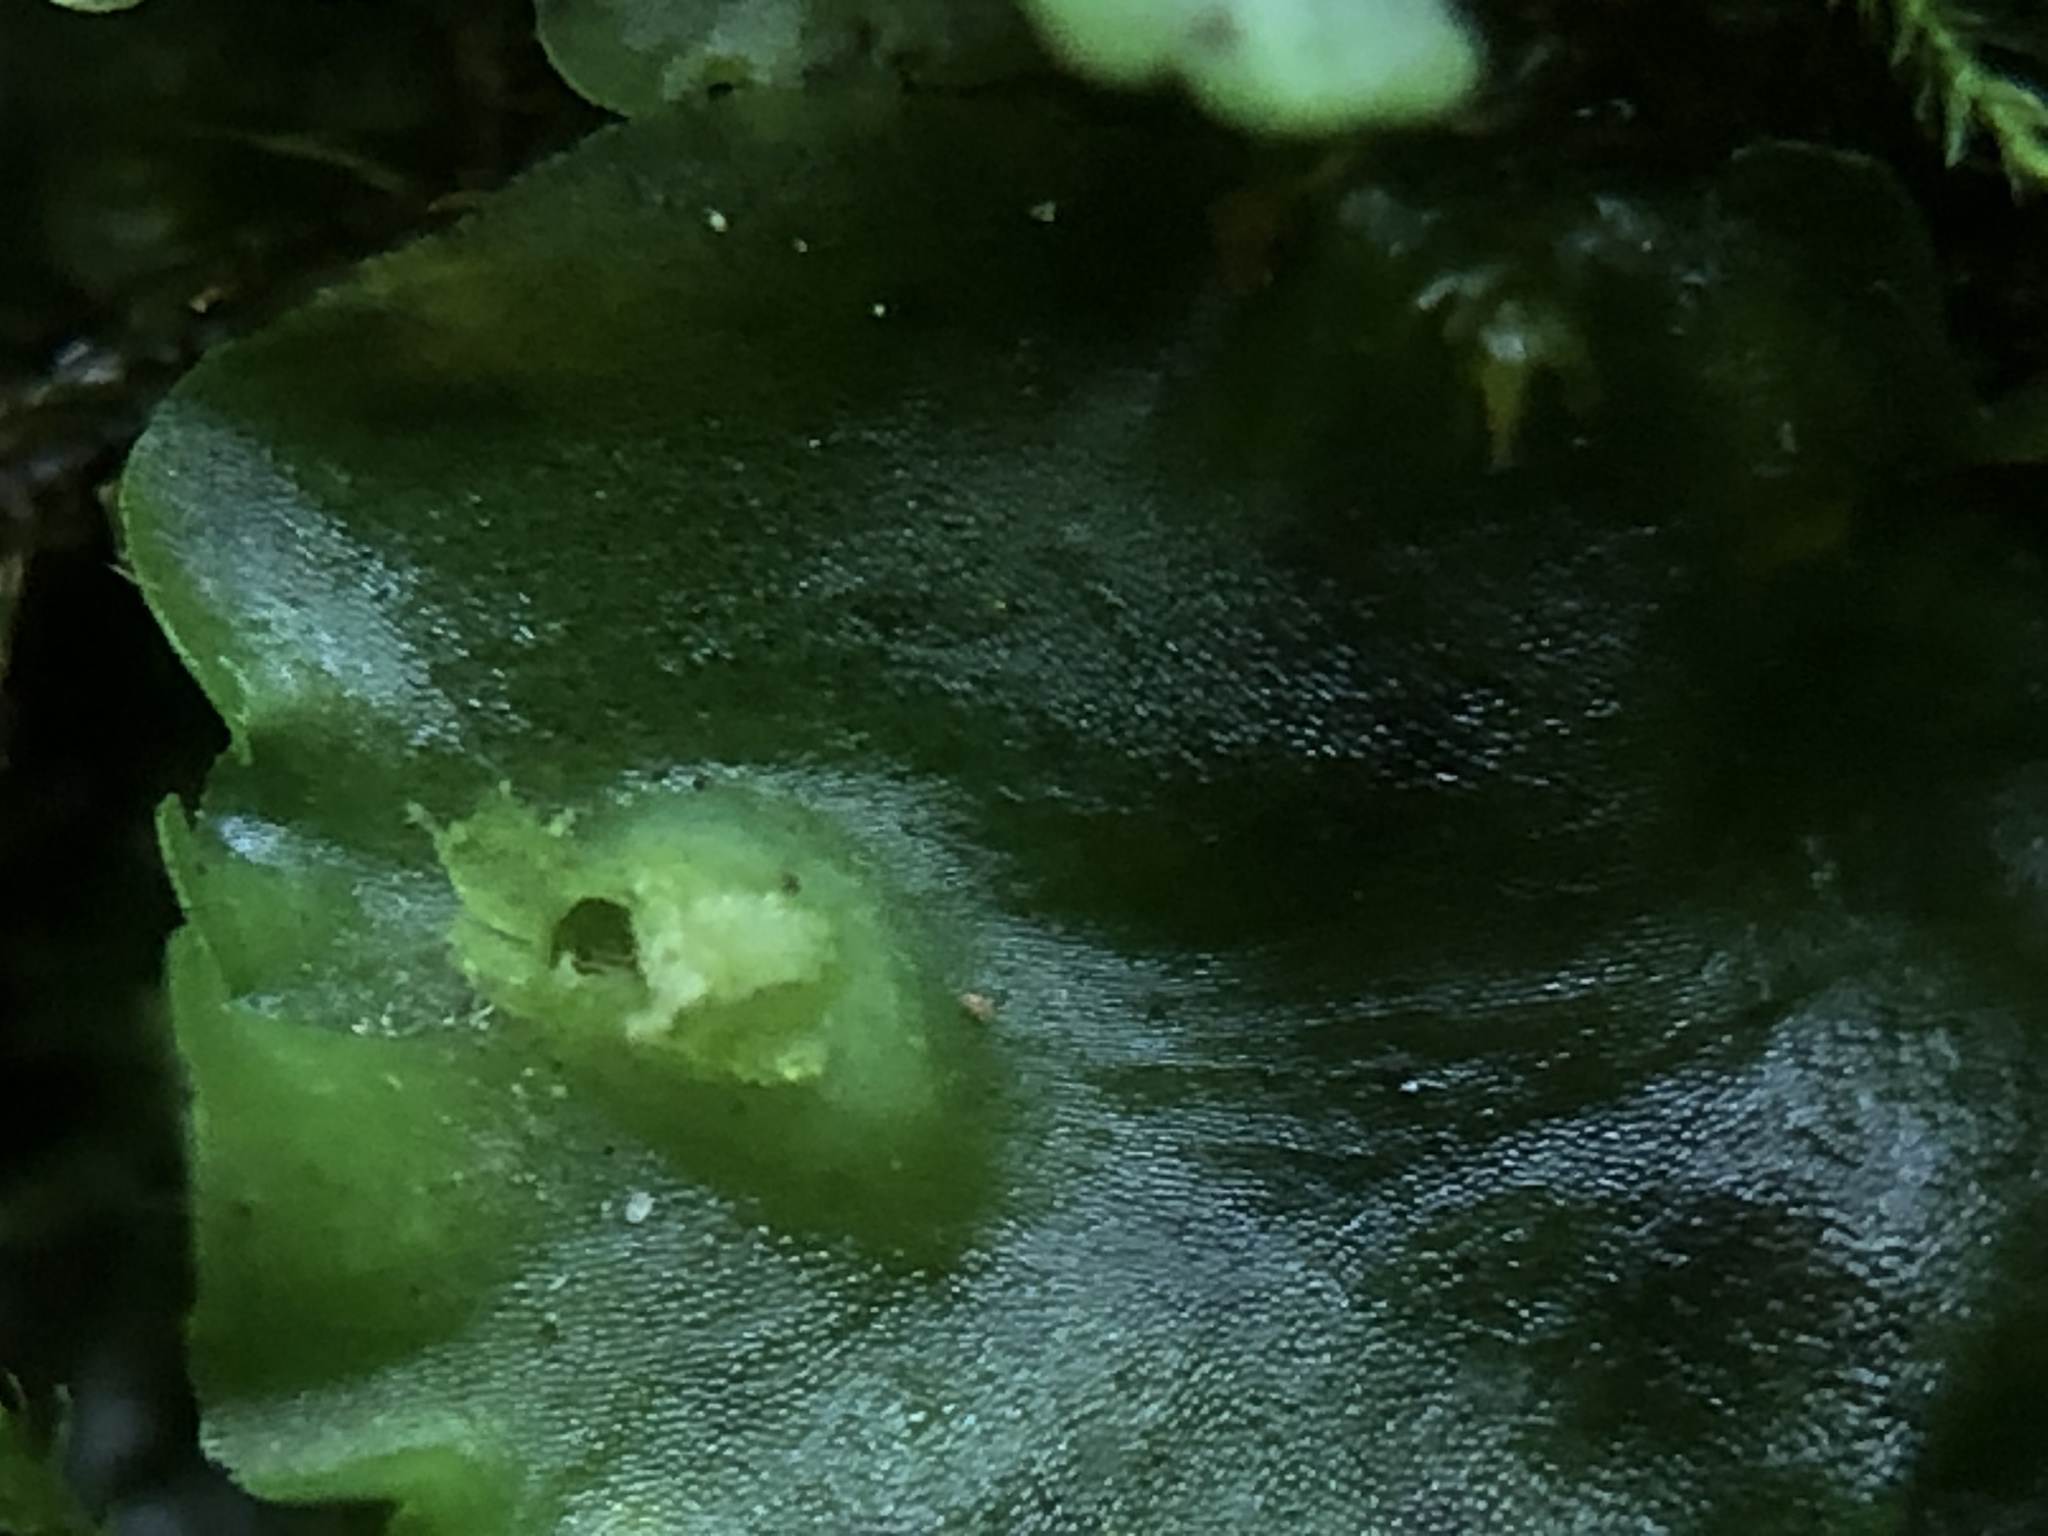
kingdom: Plantae
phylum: Marchantiophyta
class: Jungermanniopsida
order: Pelliales
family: Pelliaceae
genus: Apopellia
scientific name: Apopellia endiviifolia
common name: Endive pellia
